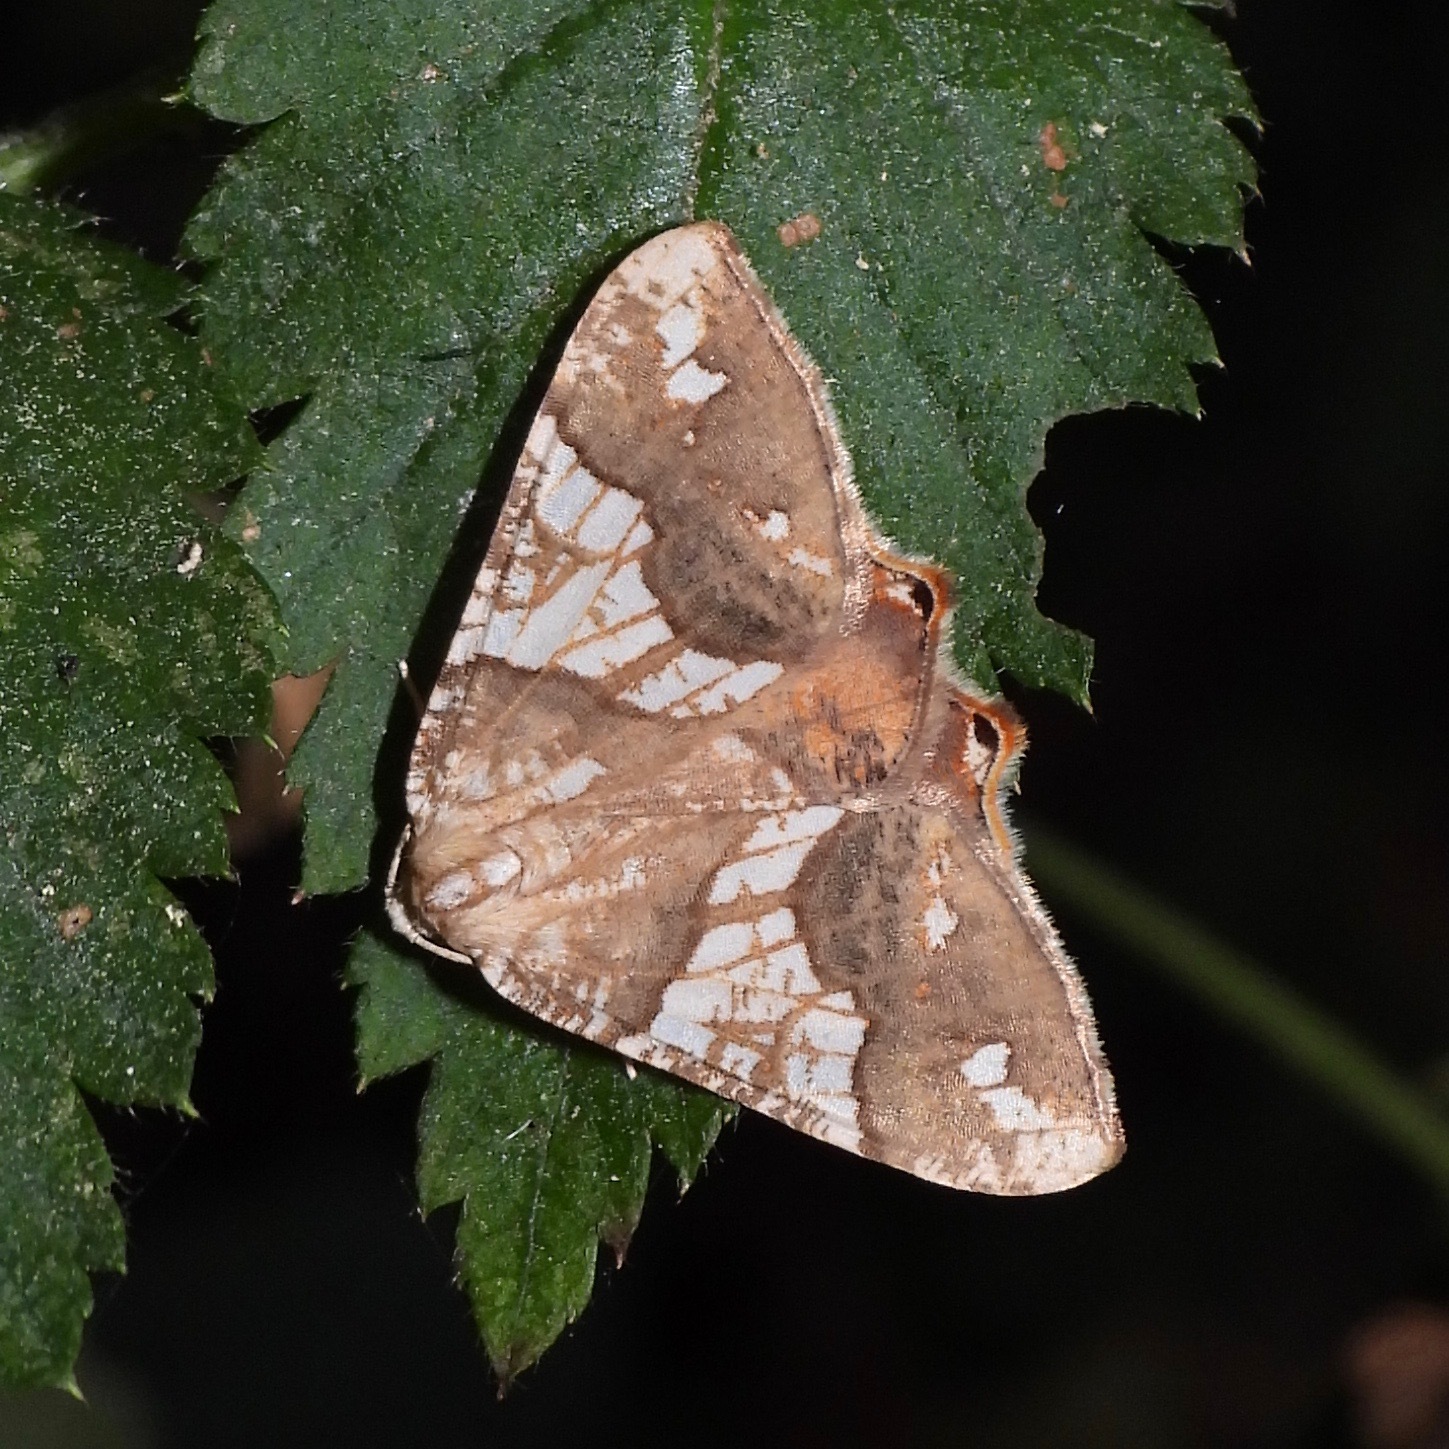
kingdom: Animalia
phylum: Arthropoda
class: Insecta
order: Lepidoptera
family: Geometridae
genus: Rindgeria
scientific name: Rindgeria ornata
